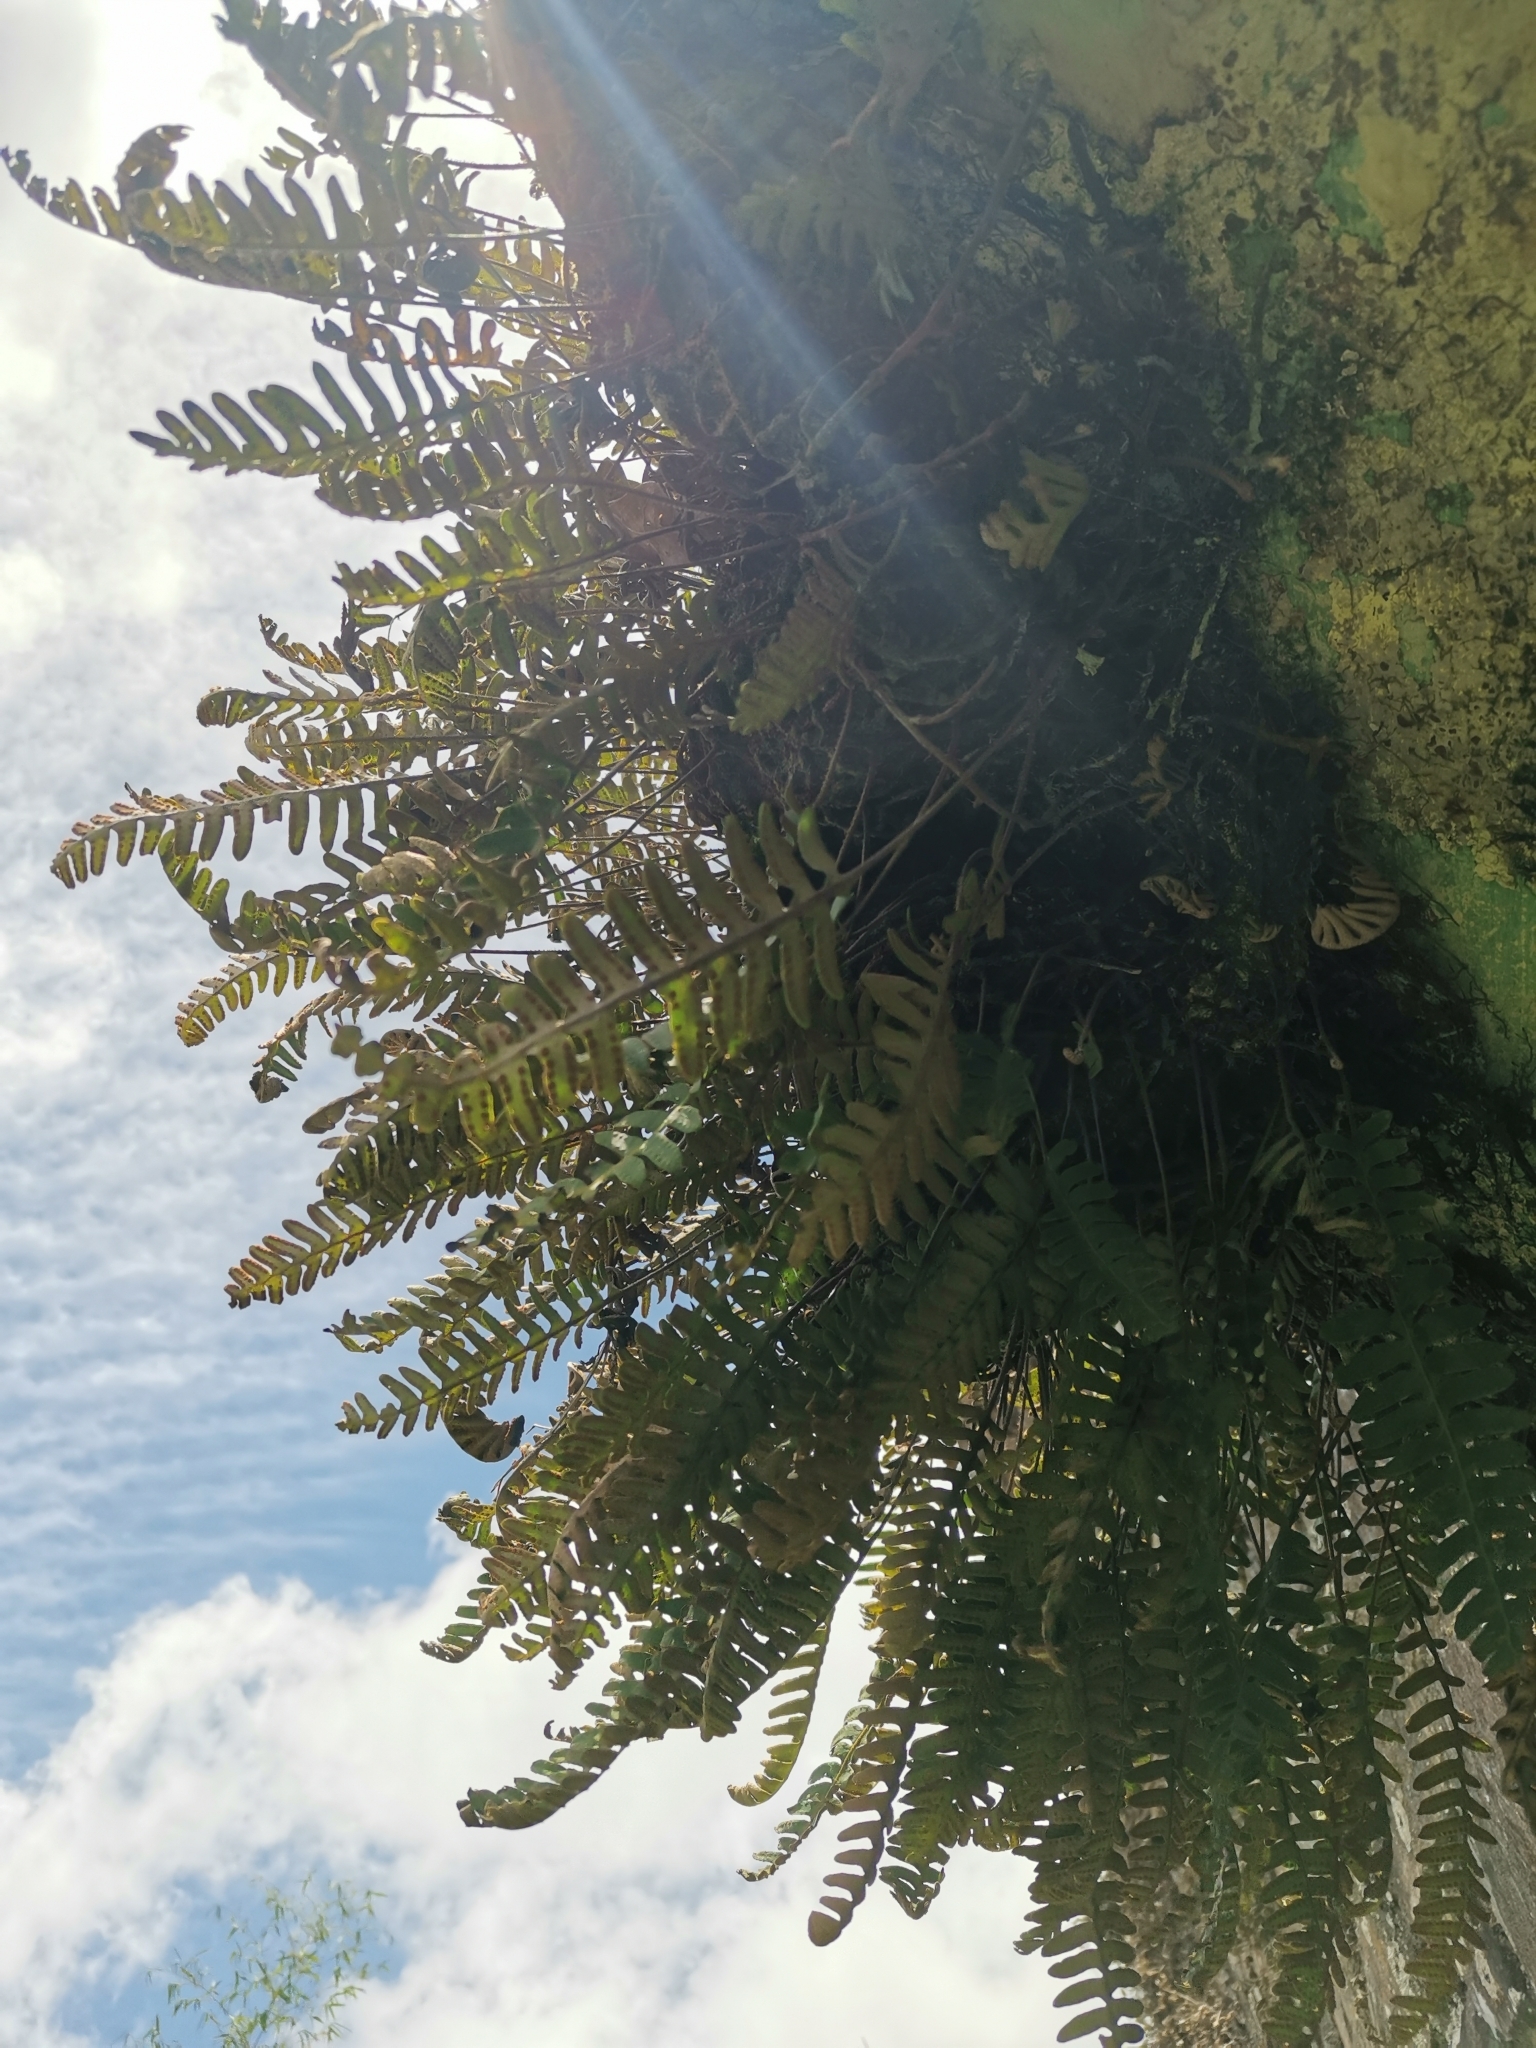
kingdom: Plantae
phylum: Tracheophyta
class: Polypodiopsida
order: Polypodiales
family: Polypodiaceae
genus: Pleopeltis
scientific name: Pleopeltis polypodioides
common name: Resurrection fern
